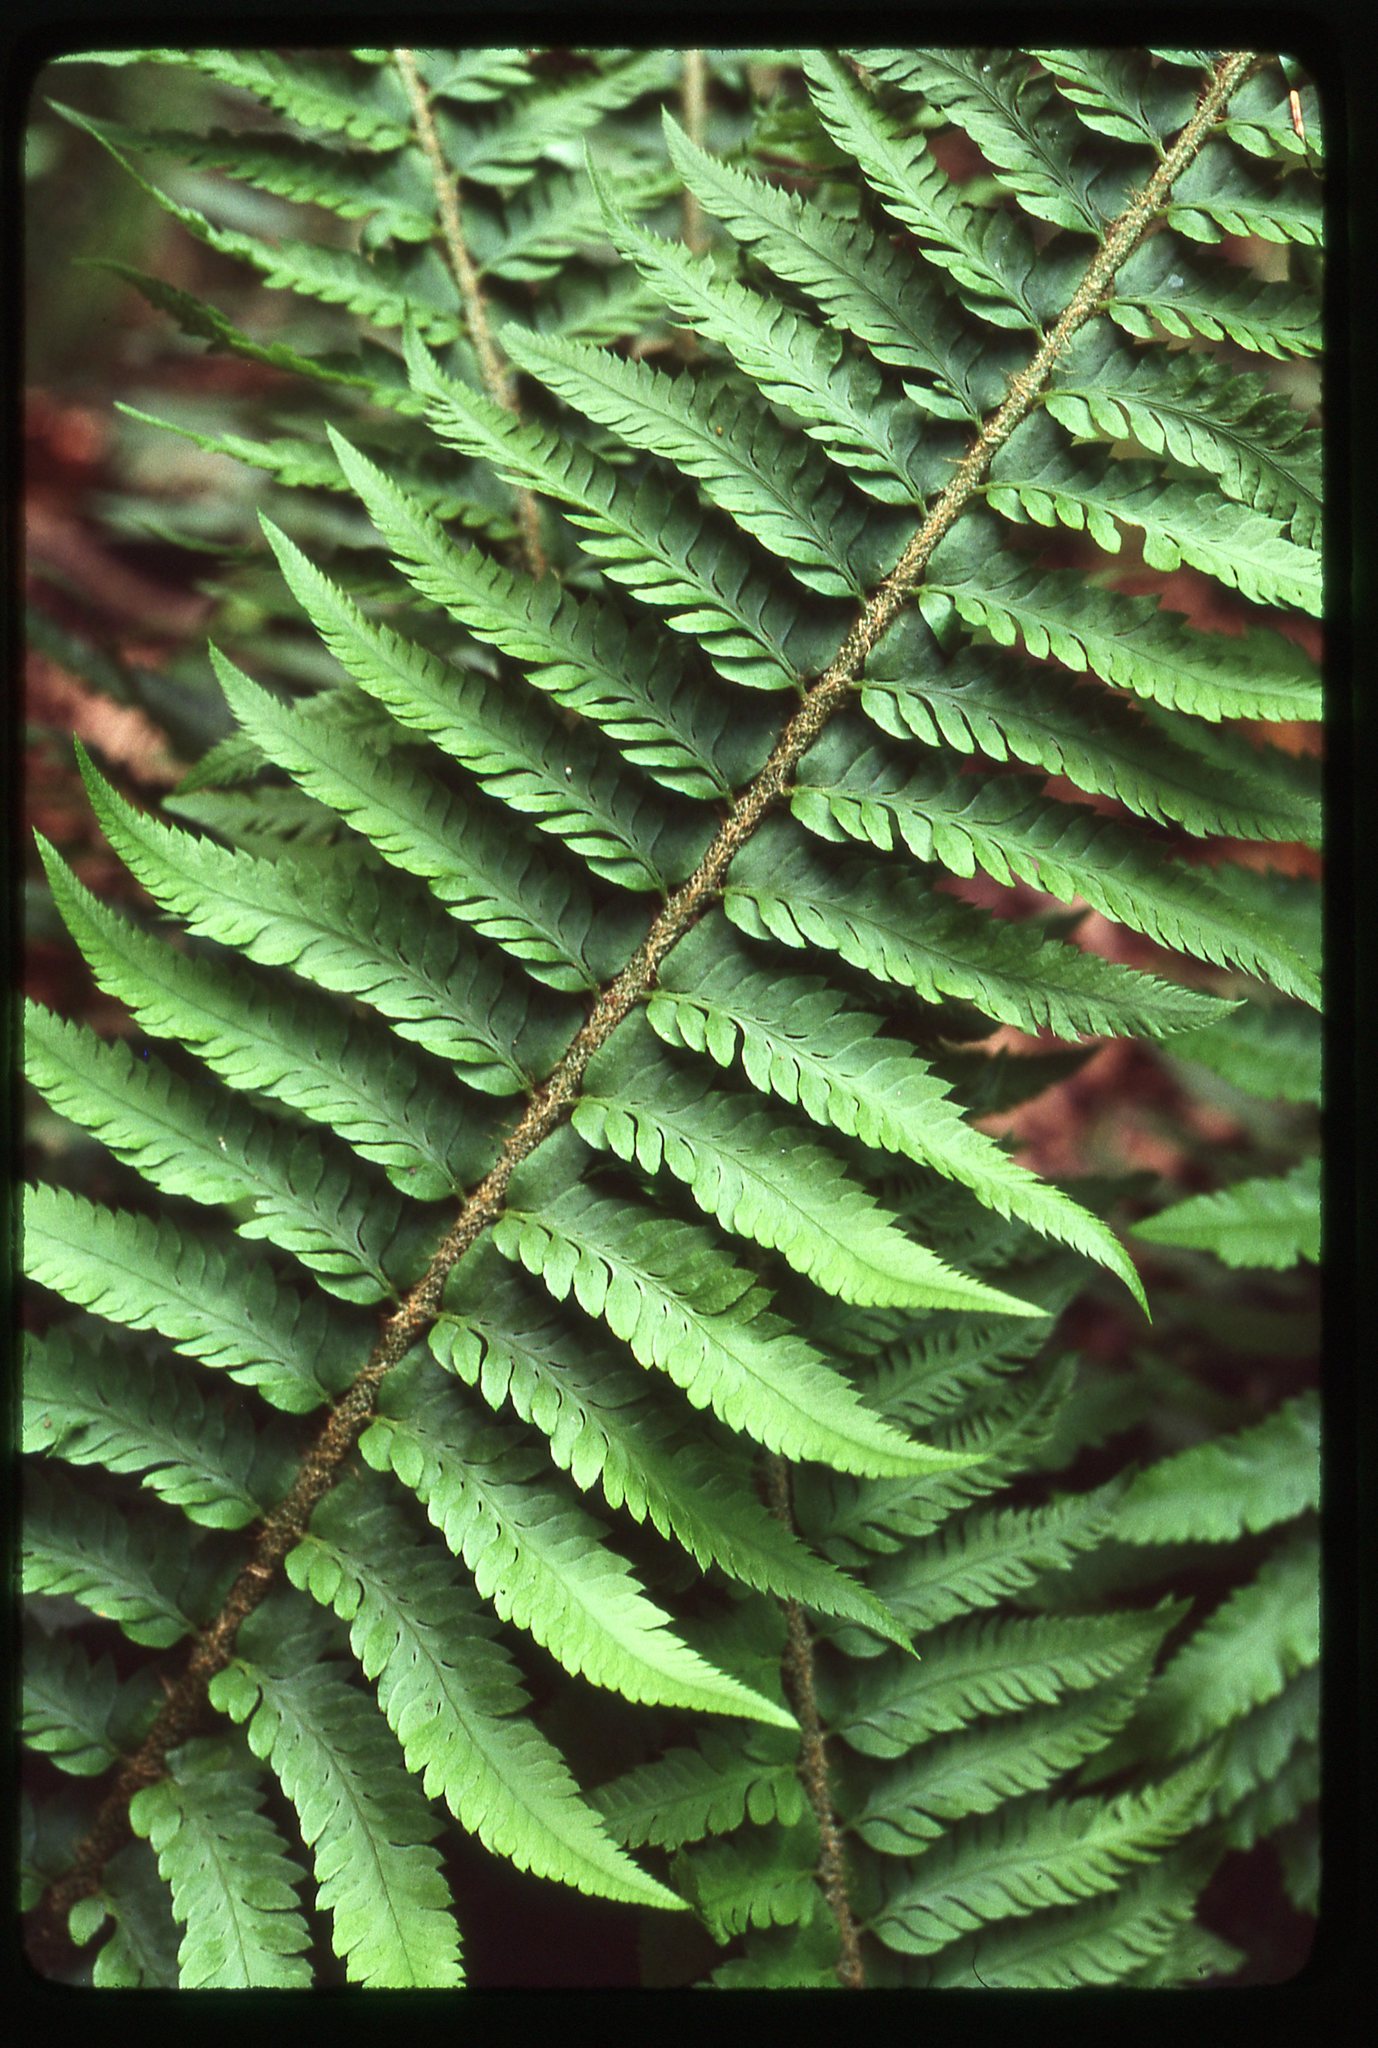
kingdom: Plantae
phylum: Tracheophyta
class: Polypodiopsida
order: Polypodiales
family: Dryopteridaceae
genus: Polystichum
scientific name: Polystichum
